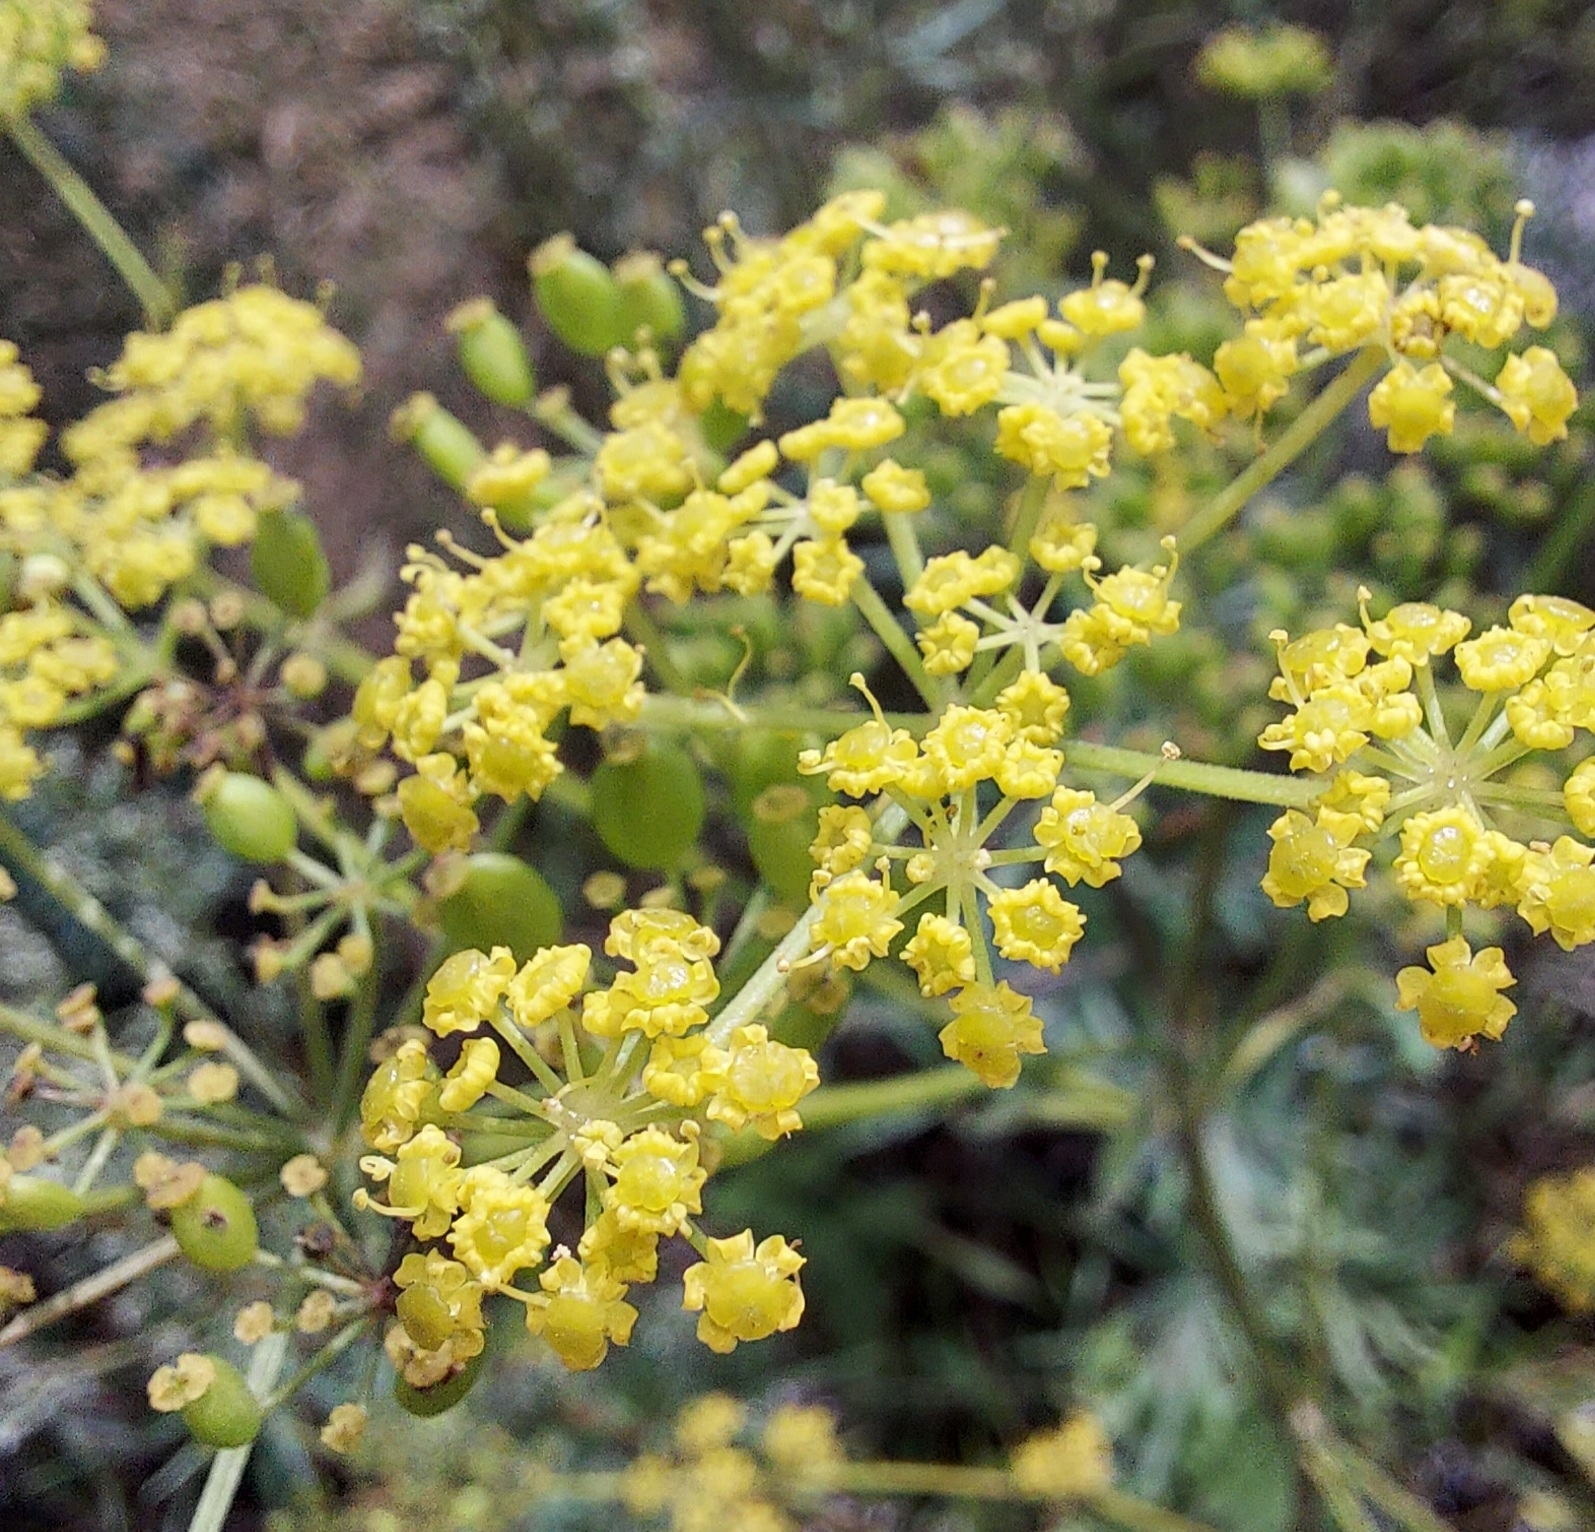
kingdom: Plantae
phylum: Tracheophyta
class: Magnoliopsida
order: Apiales
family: Apiaceae
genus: Pastinaca
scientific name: Pastinaca sativa
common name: Wild parsnip
